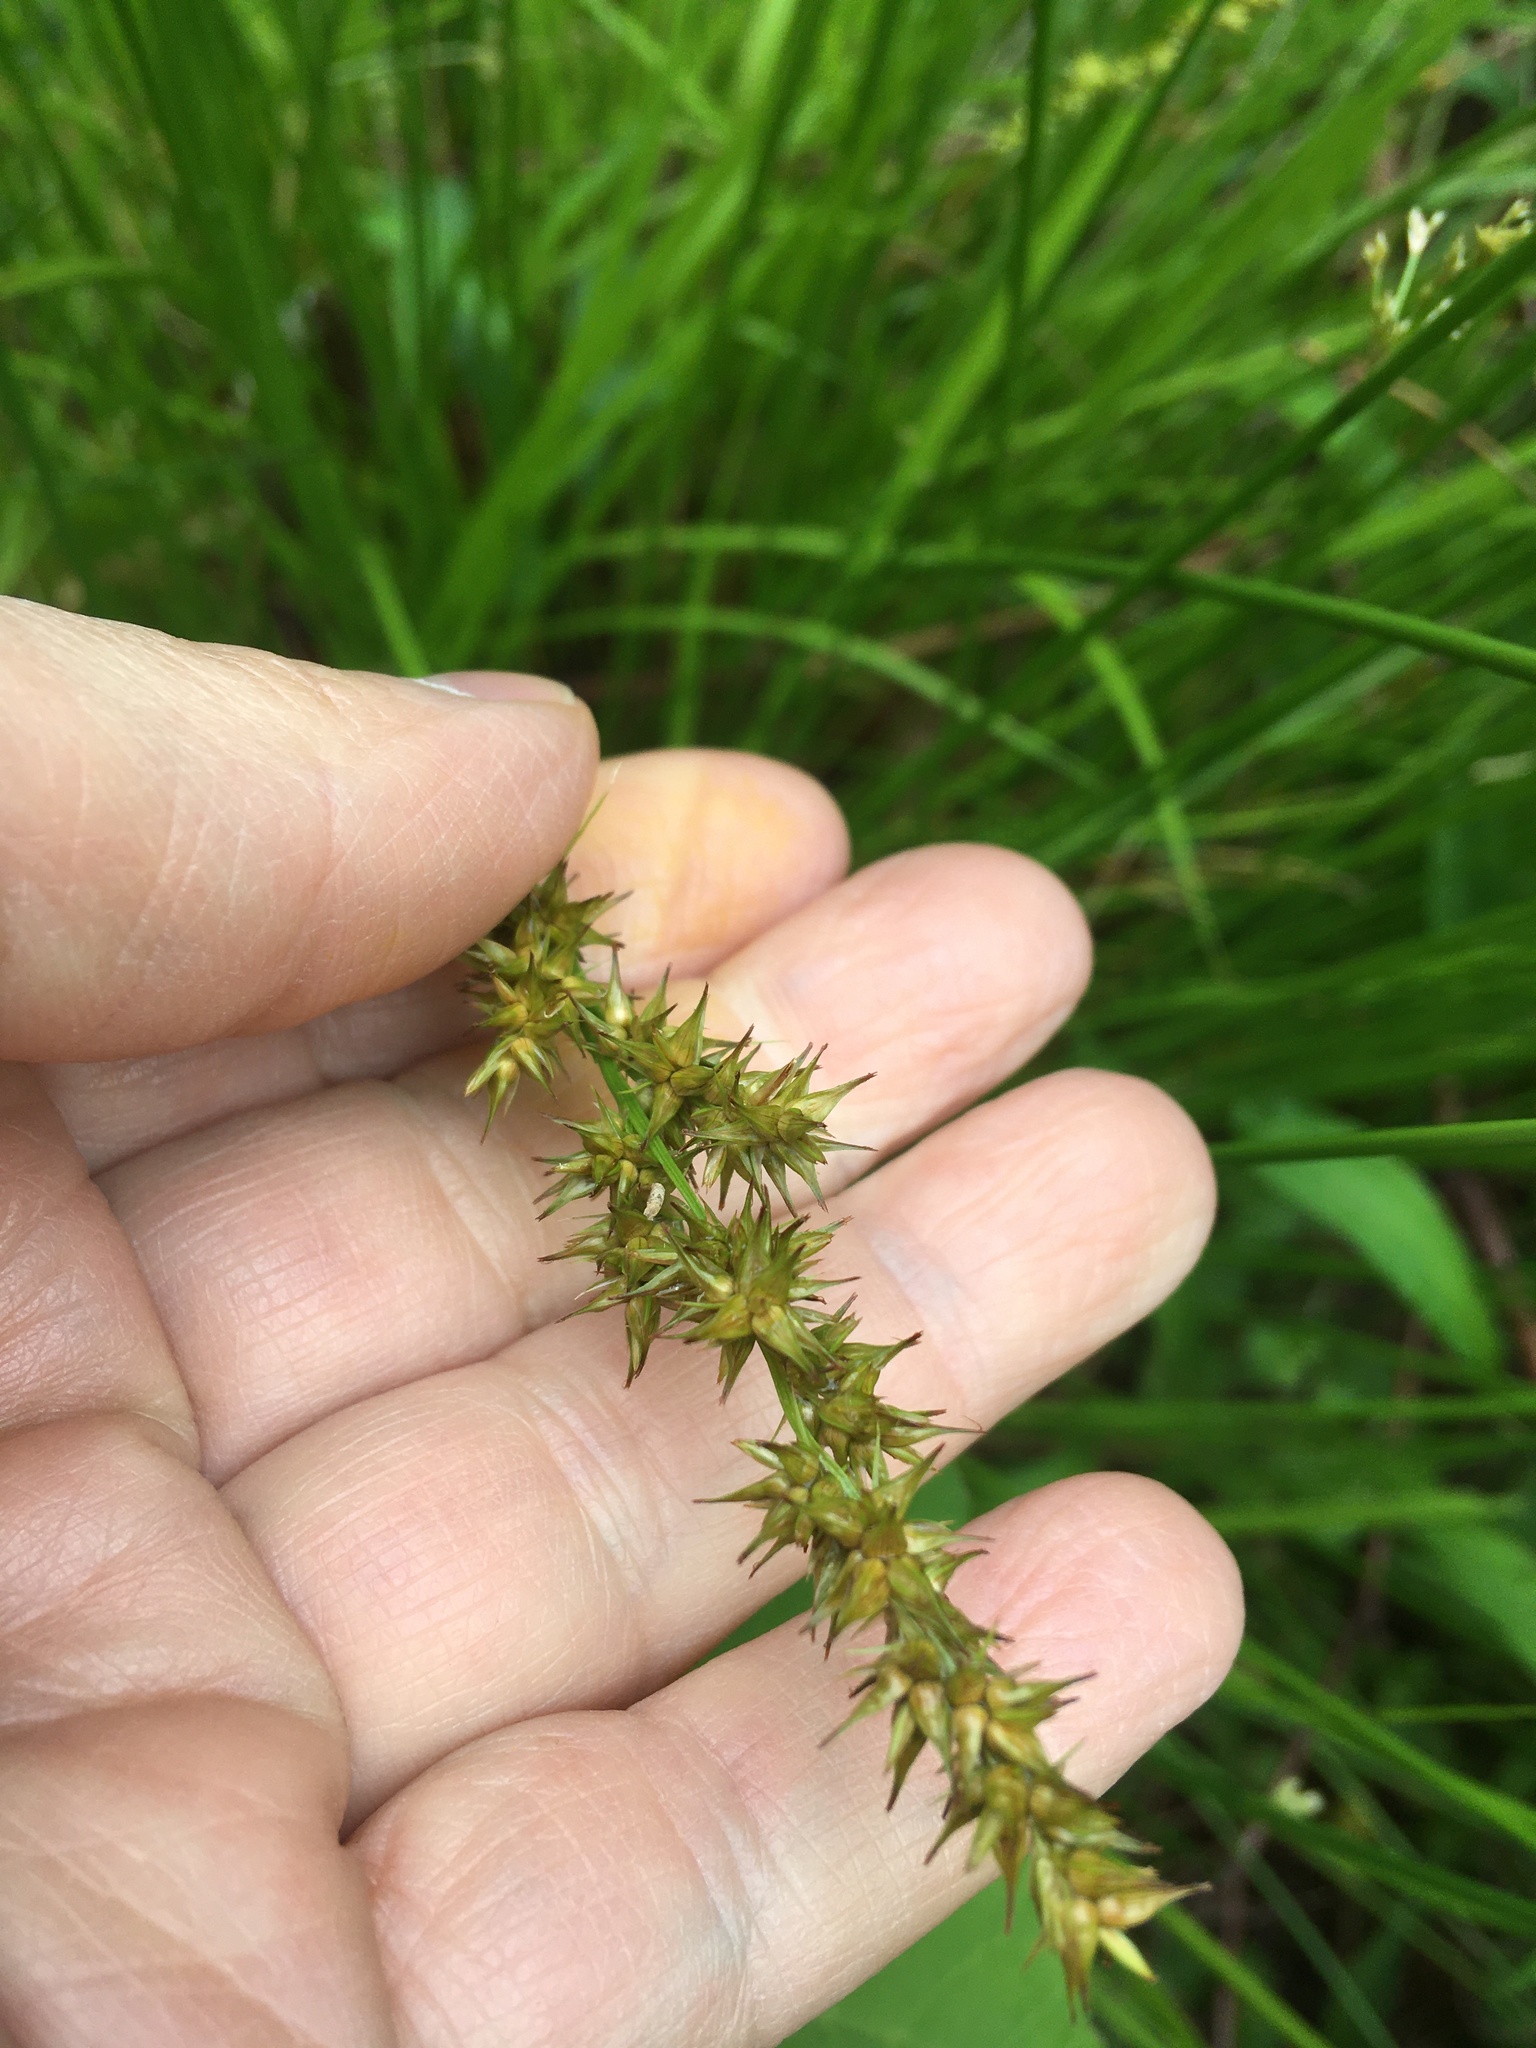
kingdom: Plantae
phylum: Tracheophyta
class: Liliopsida
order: Poales
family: Cyperaceae
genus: Carex
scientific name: Carex stipata
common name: Awl-fruited sedge
